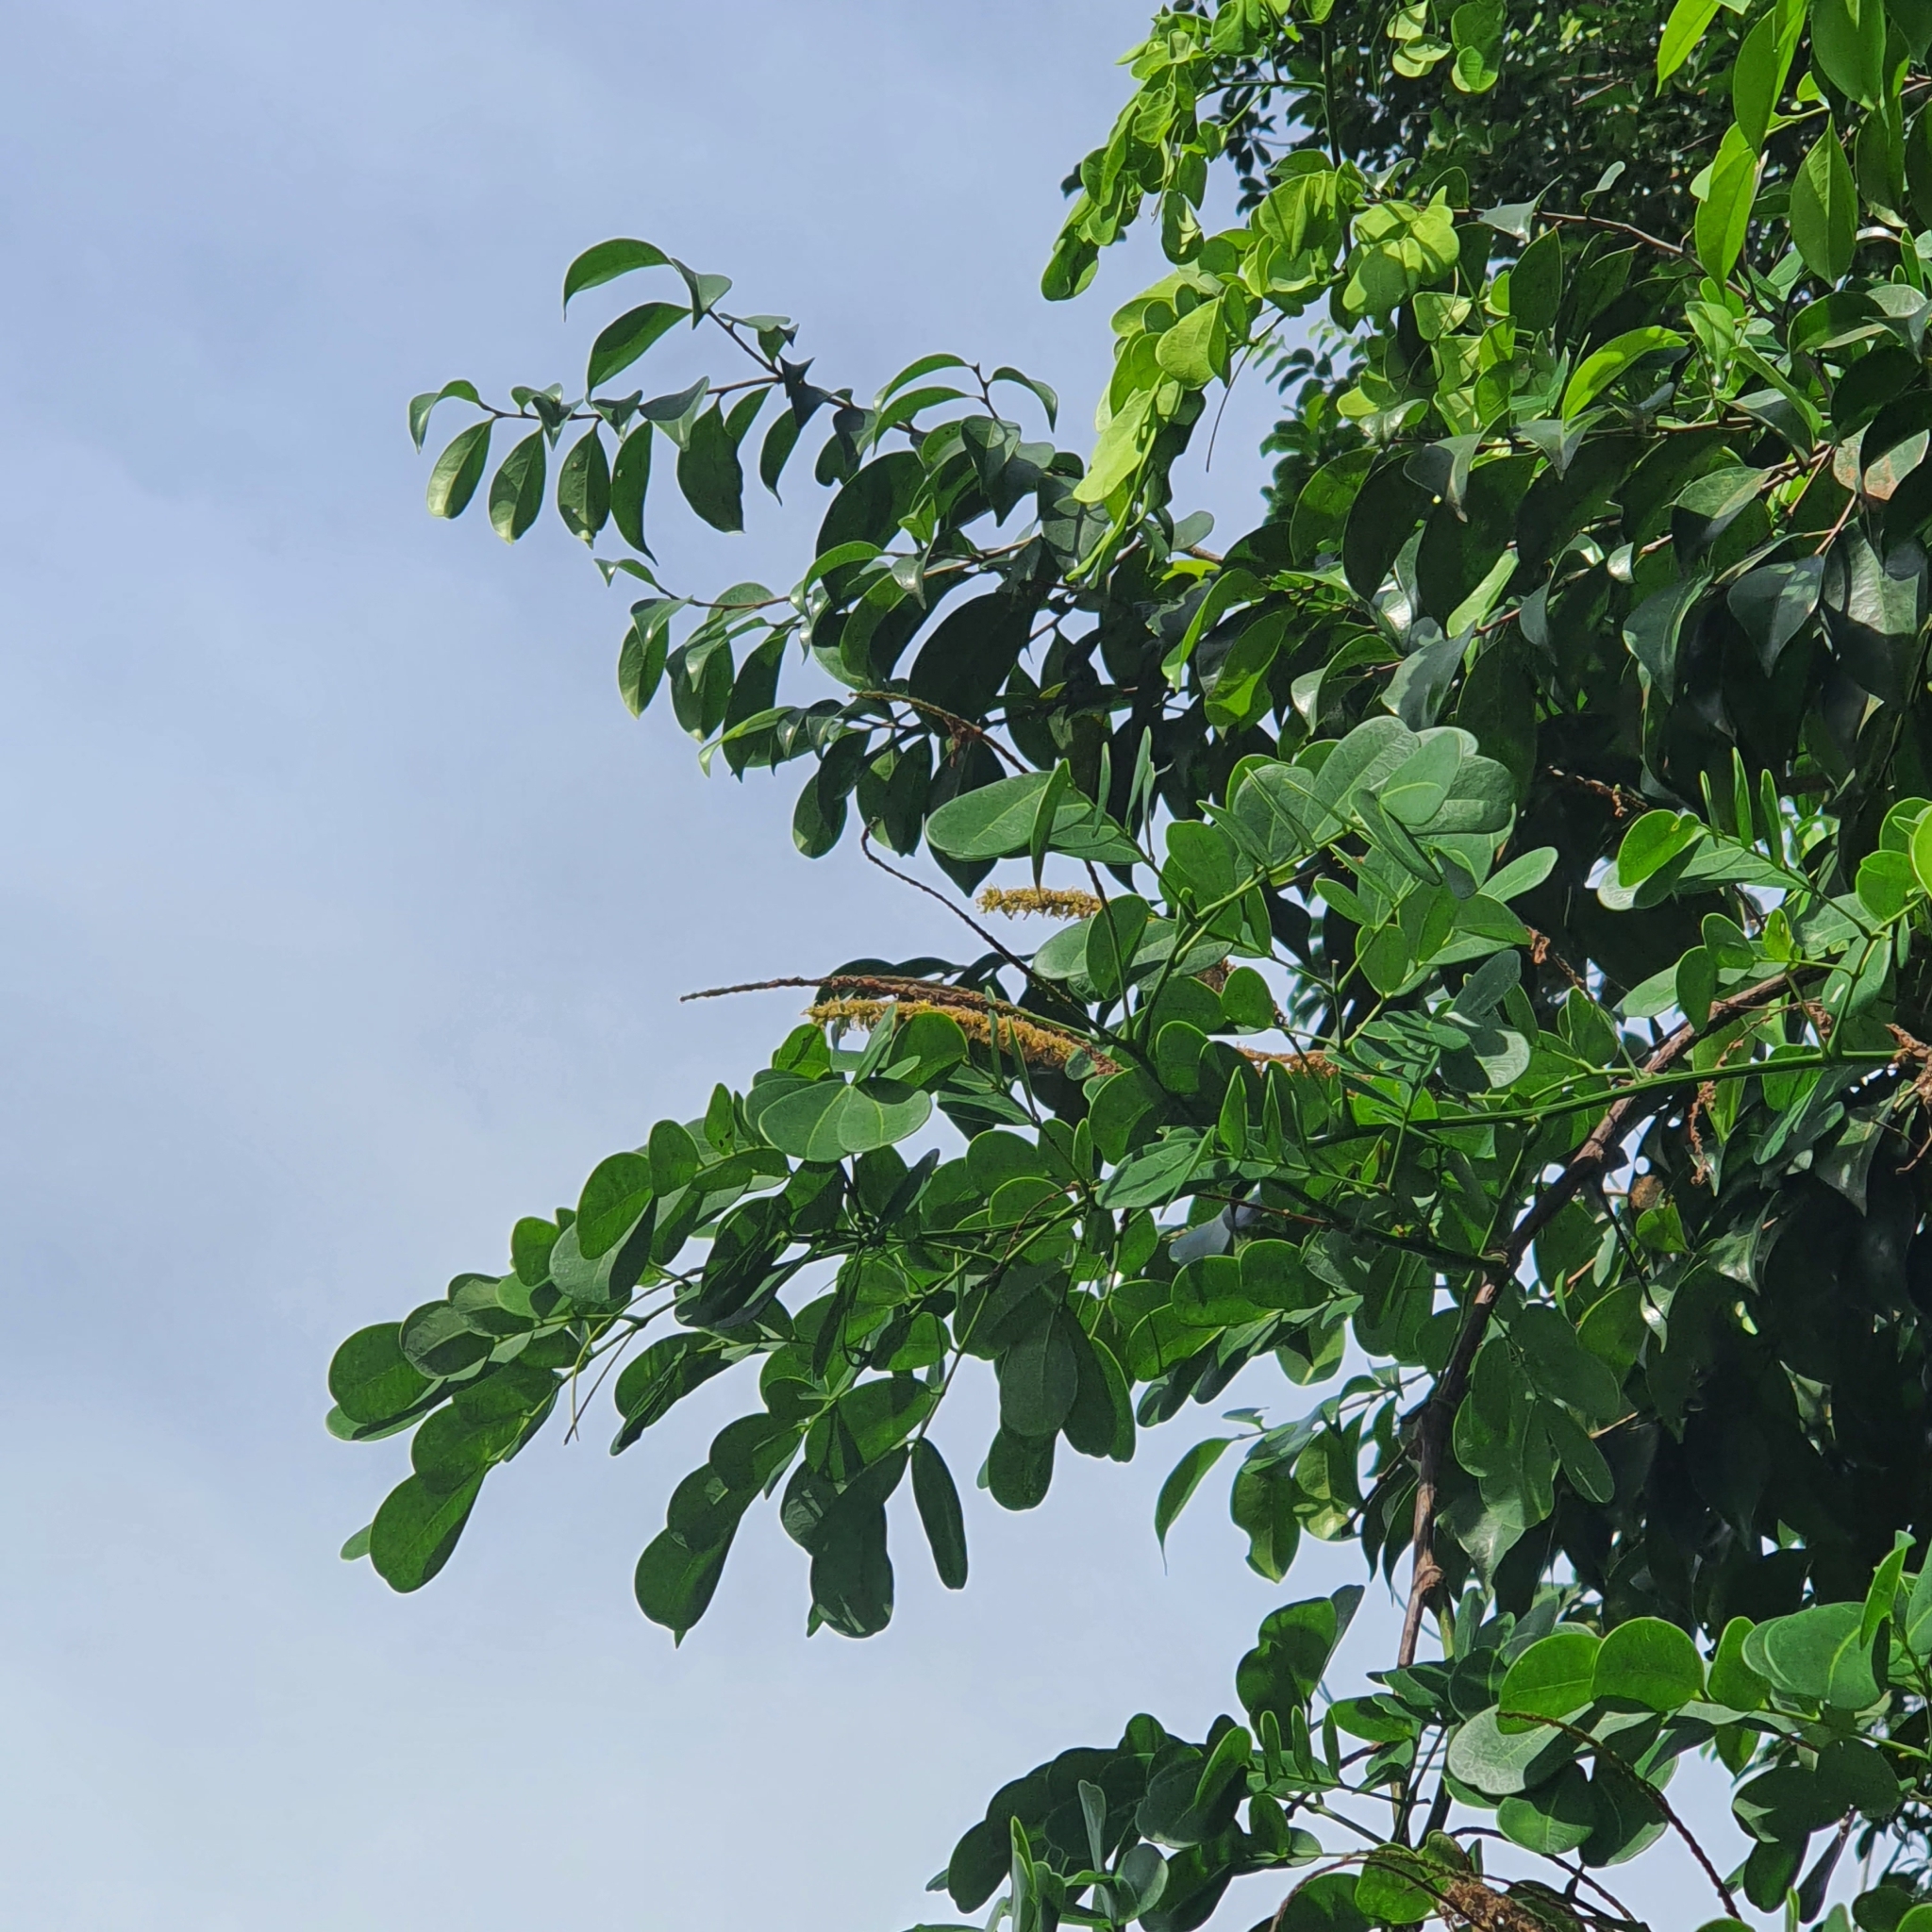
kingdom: Plantae
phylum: Tracheophyta
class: Magnoliopsida
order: Fabales
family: Fabaceae
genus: Entada
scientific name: Entada spiralis
